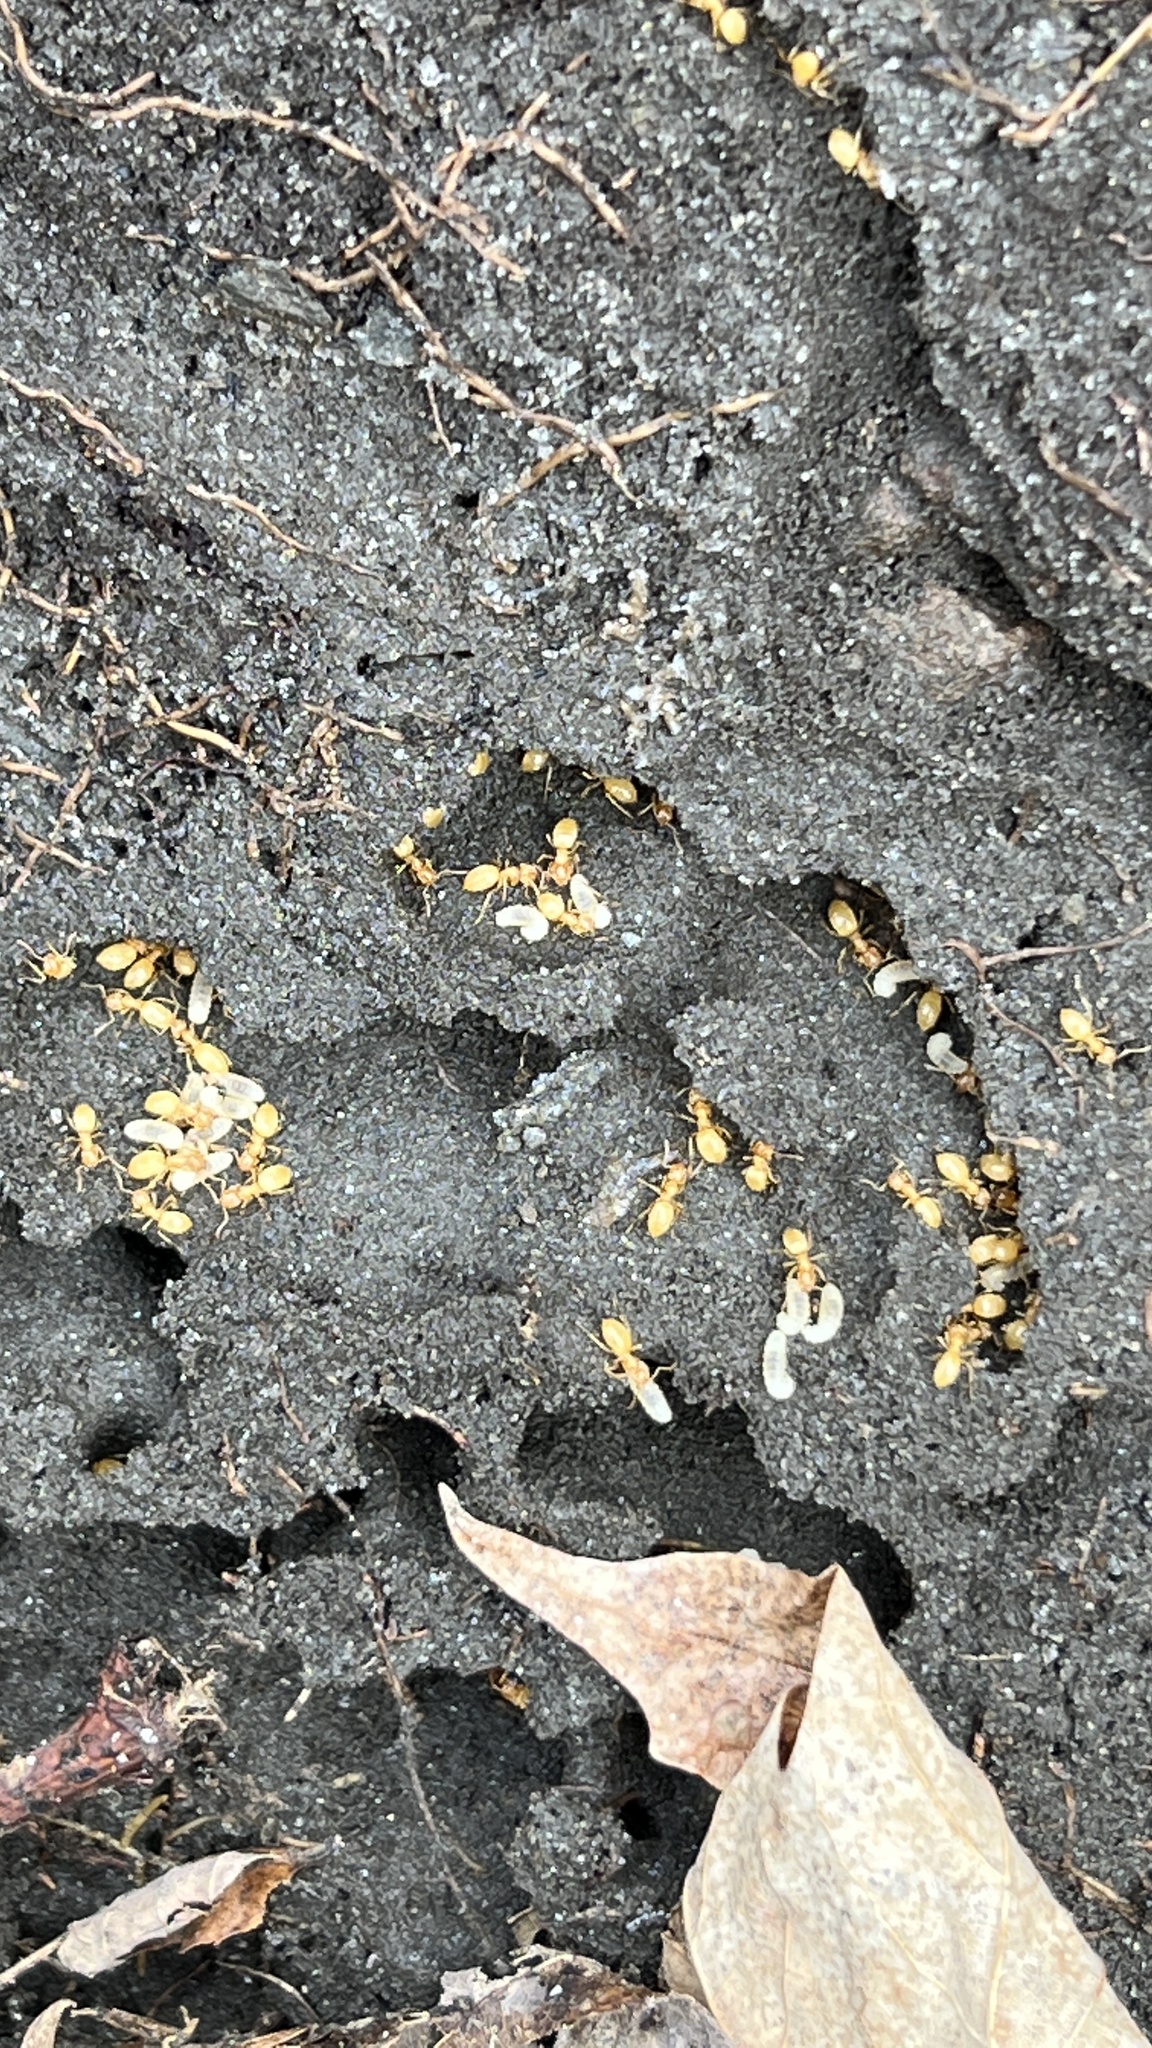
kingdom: Animalia
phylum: Arthropoda
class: Insecta
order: Hymenoptera
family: Formicidae
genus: Lasius
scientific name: Lasius nearcticus
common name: New world fuzzy ant
